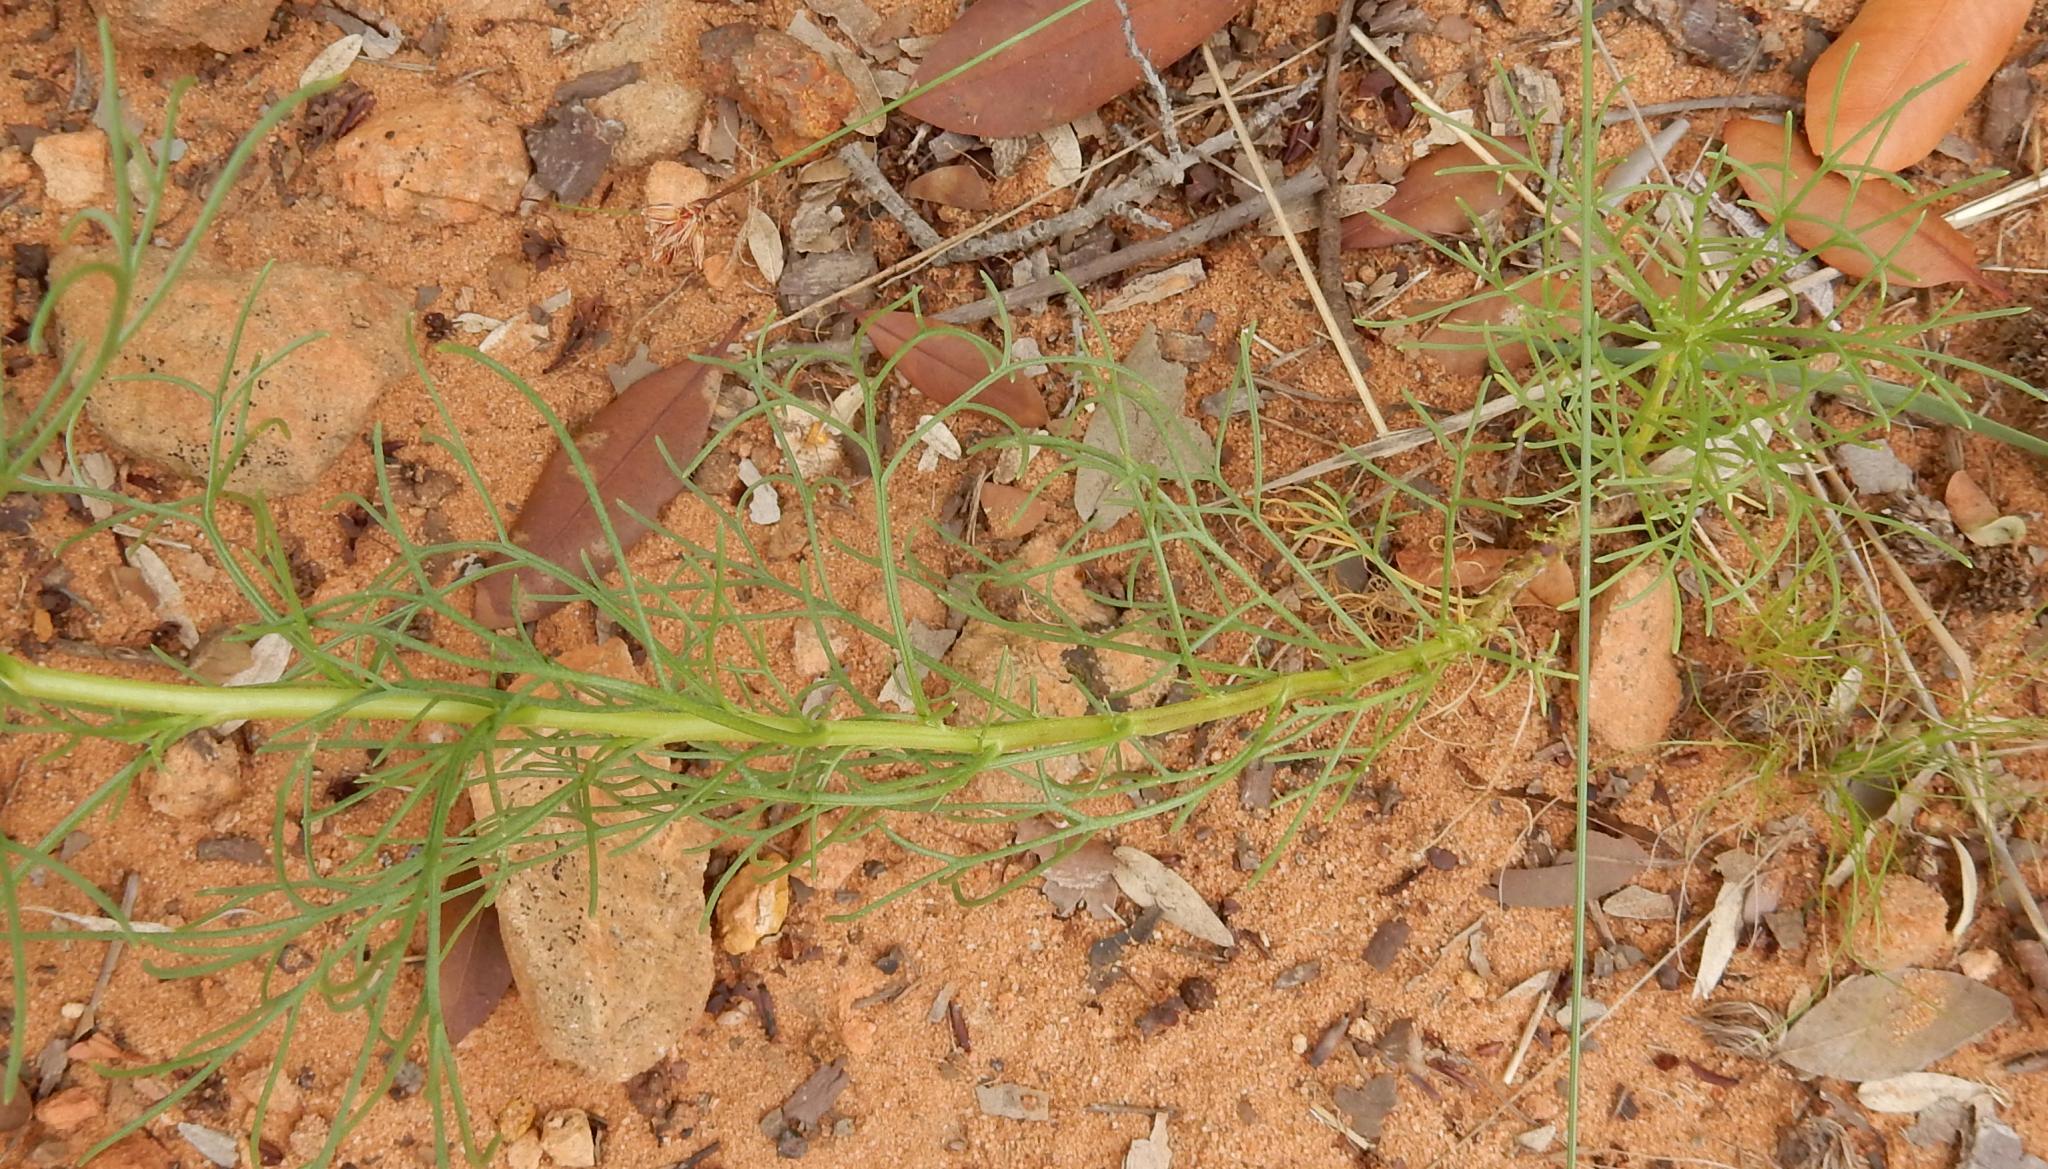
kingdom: Plantae
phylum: Tracheophyta
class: Magnoliopsida
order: Asterales
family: Asteraceae
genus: Ursinia
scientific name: Ursinia nana
